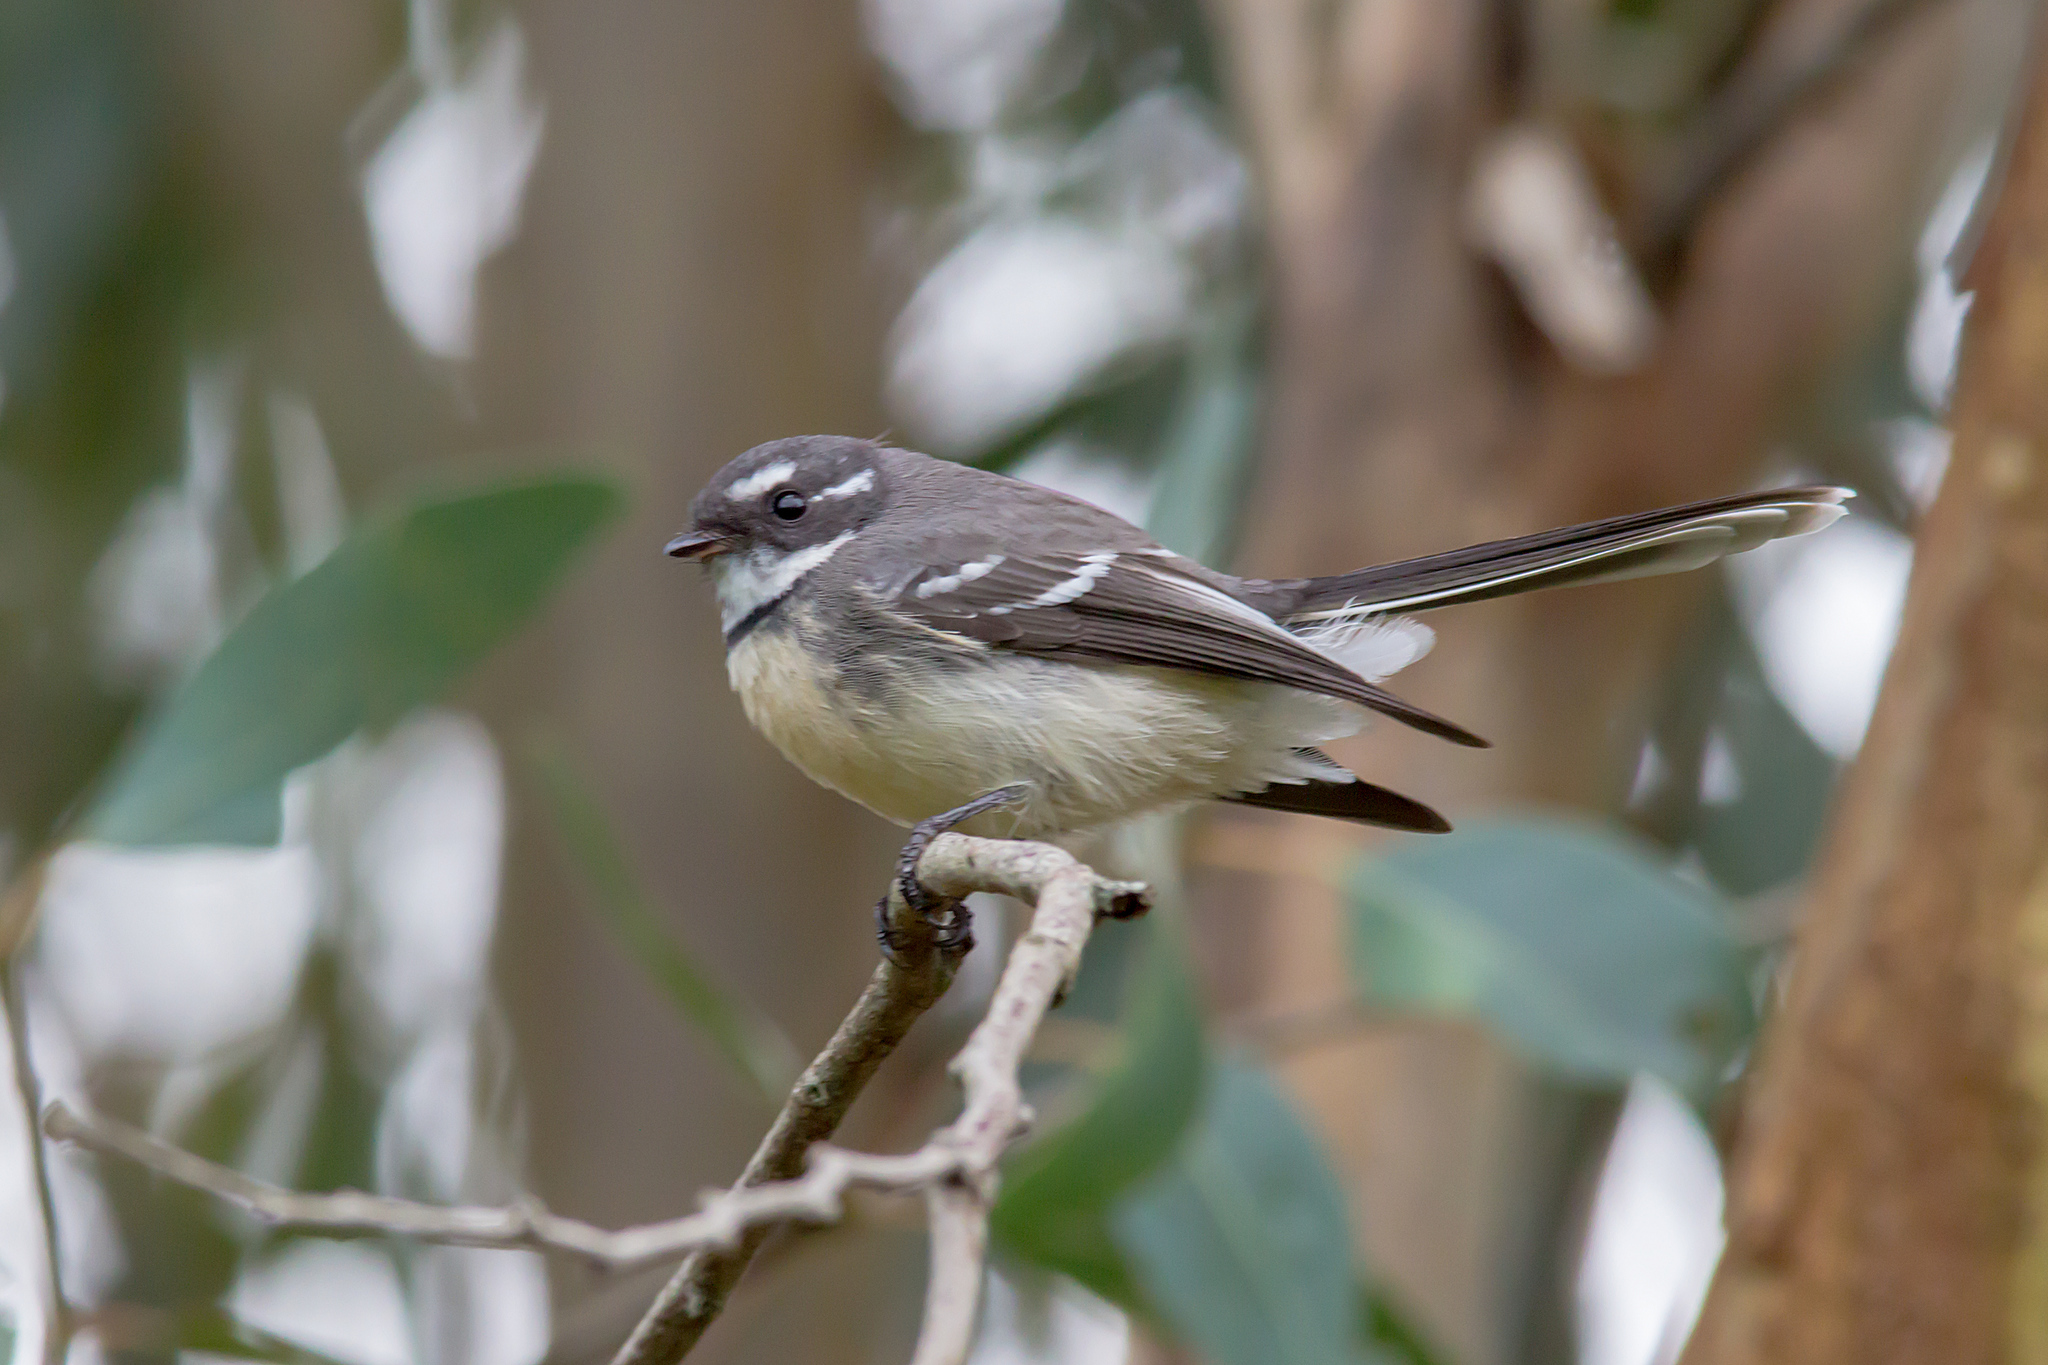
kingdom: Animalia
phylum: Chordata
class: Aves
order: Passeriformes
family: Rhipiduridae
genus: Rhipidura
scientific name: Rhipidura albiscapa
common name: Grey fantail
